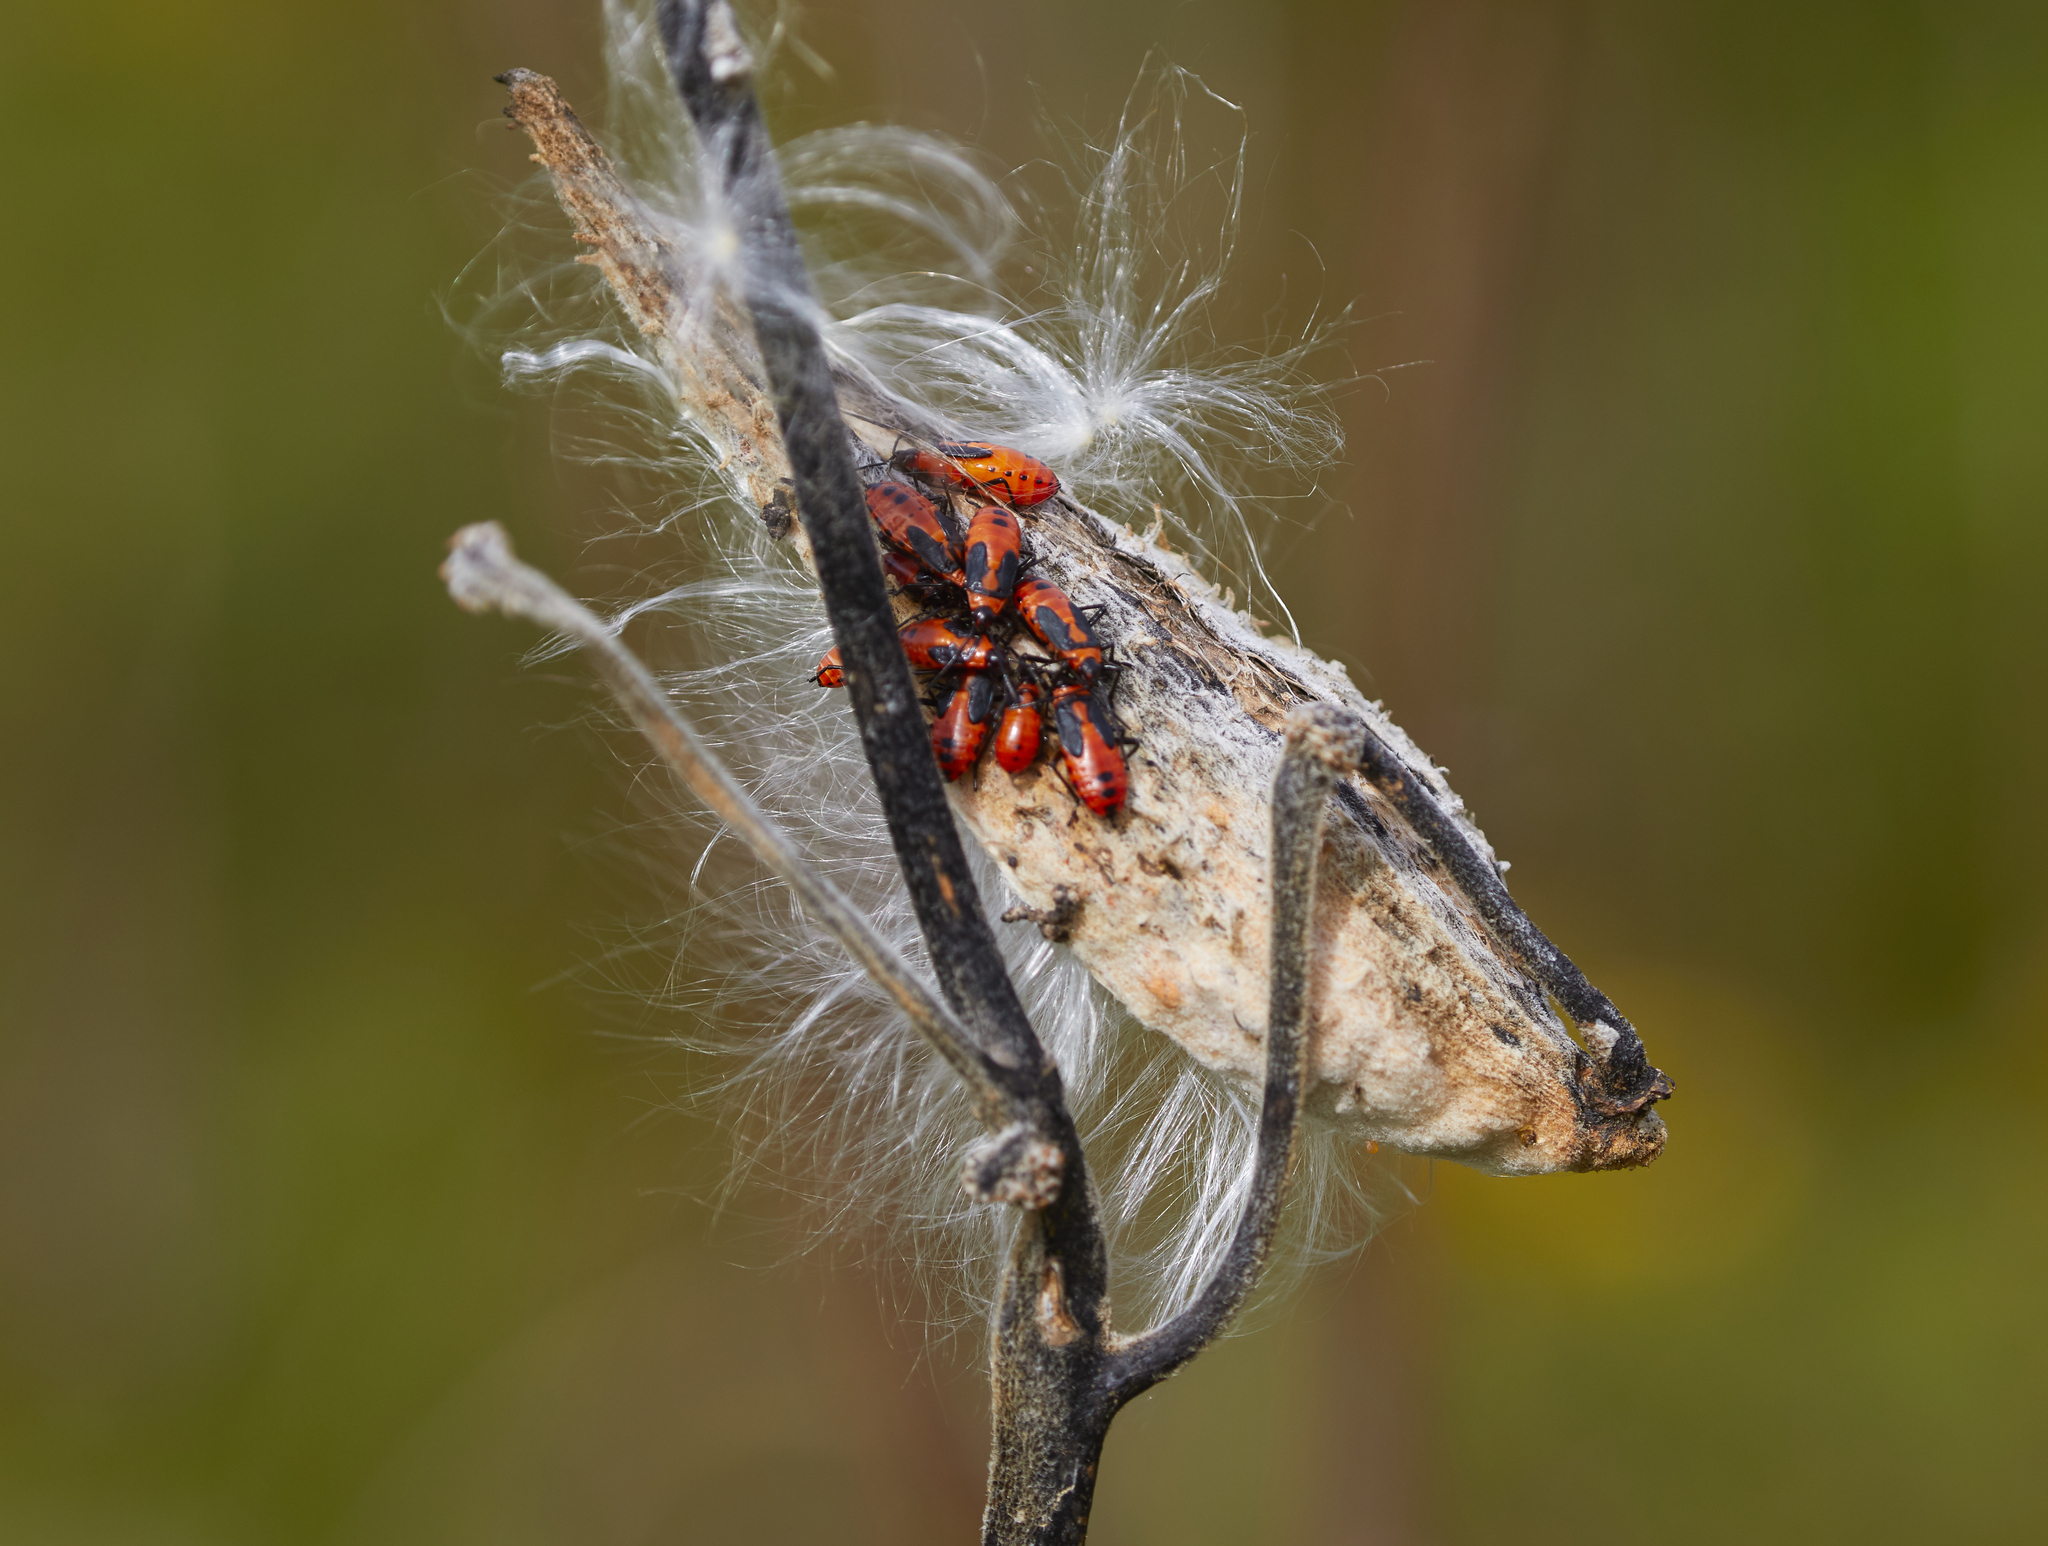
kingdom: Animalia
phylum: Arthropoda
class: Insecta
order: Hemiptera
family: Lygaeidae
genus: Oncopeltus
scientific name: Oncopeltus fasciatus
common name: Large milkweed bug
